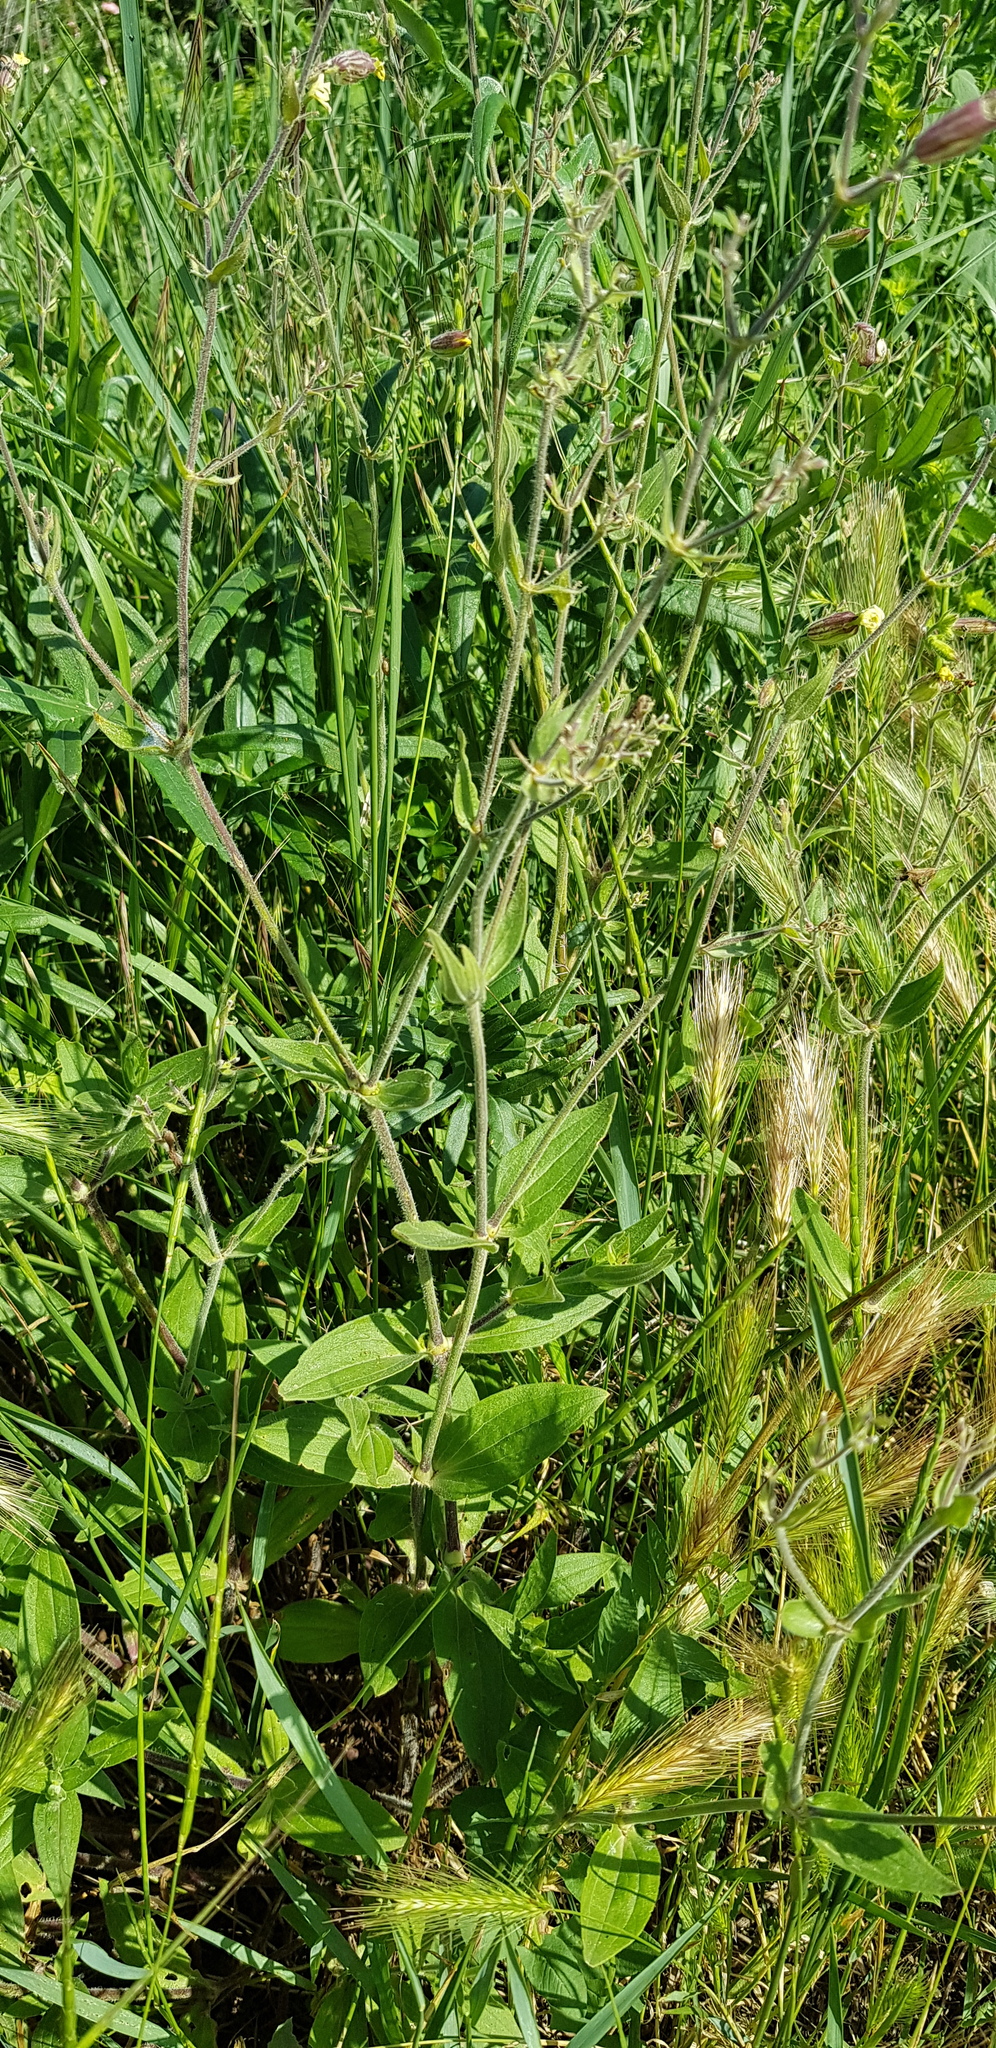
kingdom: Plantae
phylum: Tracheophyta
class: Magnoliopsida
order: Caryophyllales
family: Caryophyllaceae
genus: Silene
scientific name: Silene latifolia
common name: White campion
